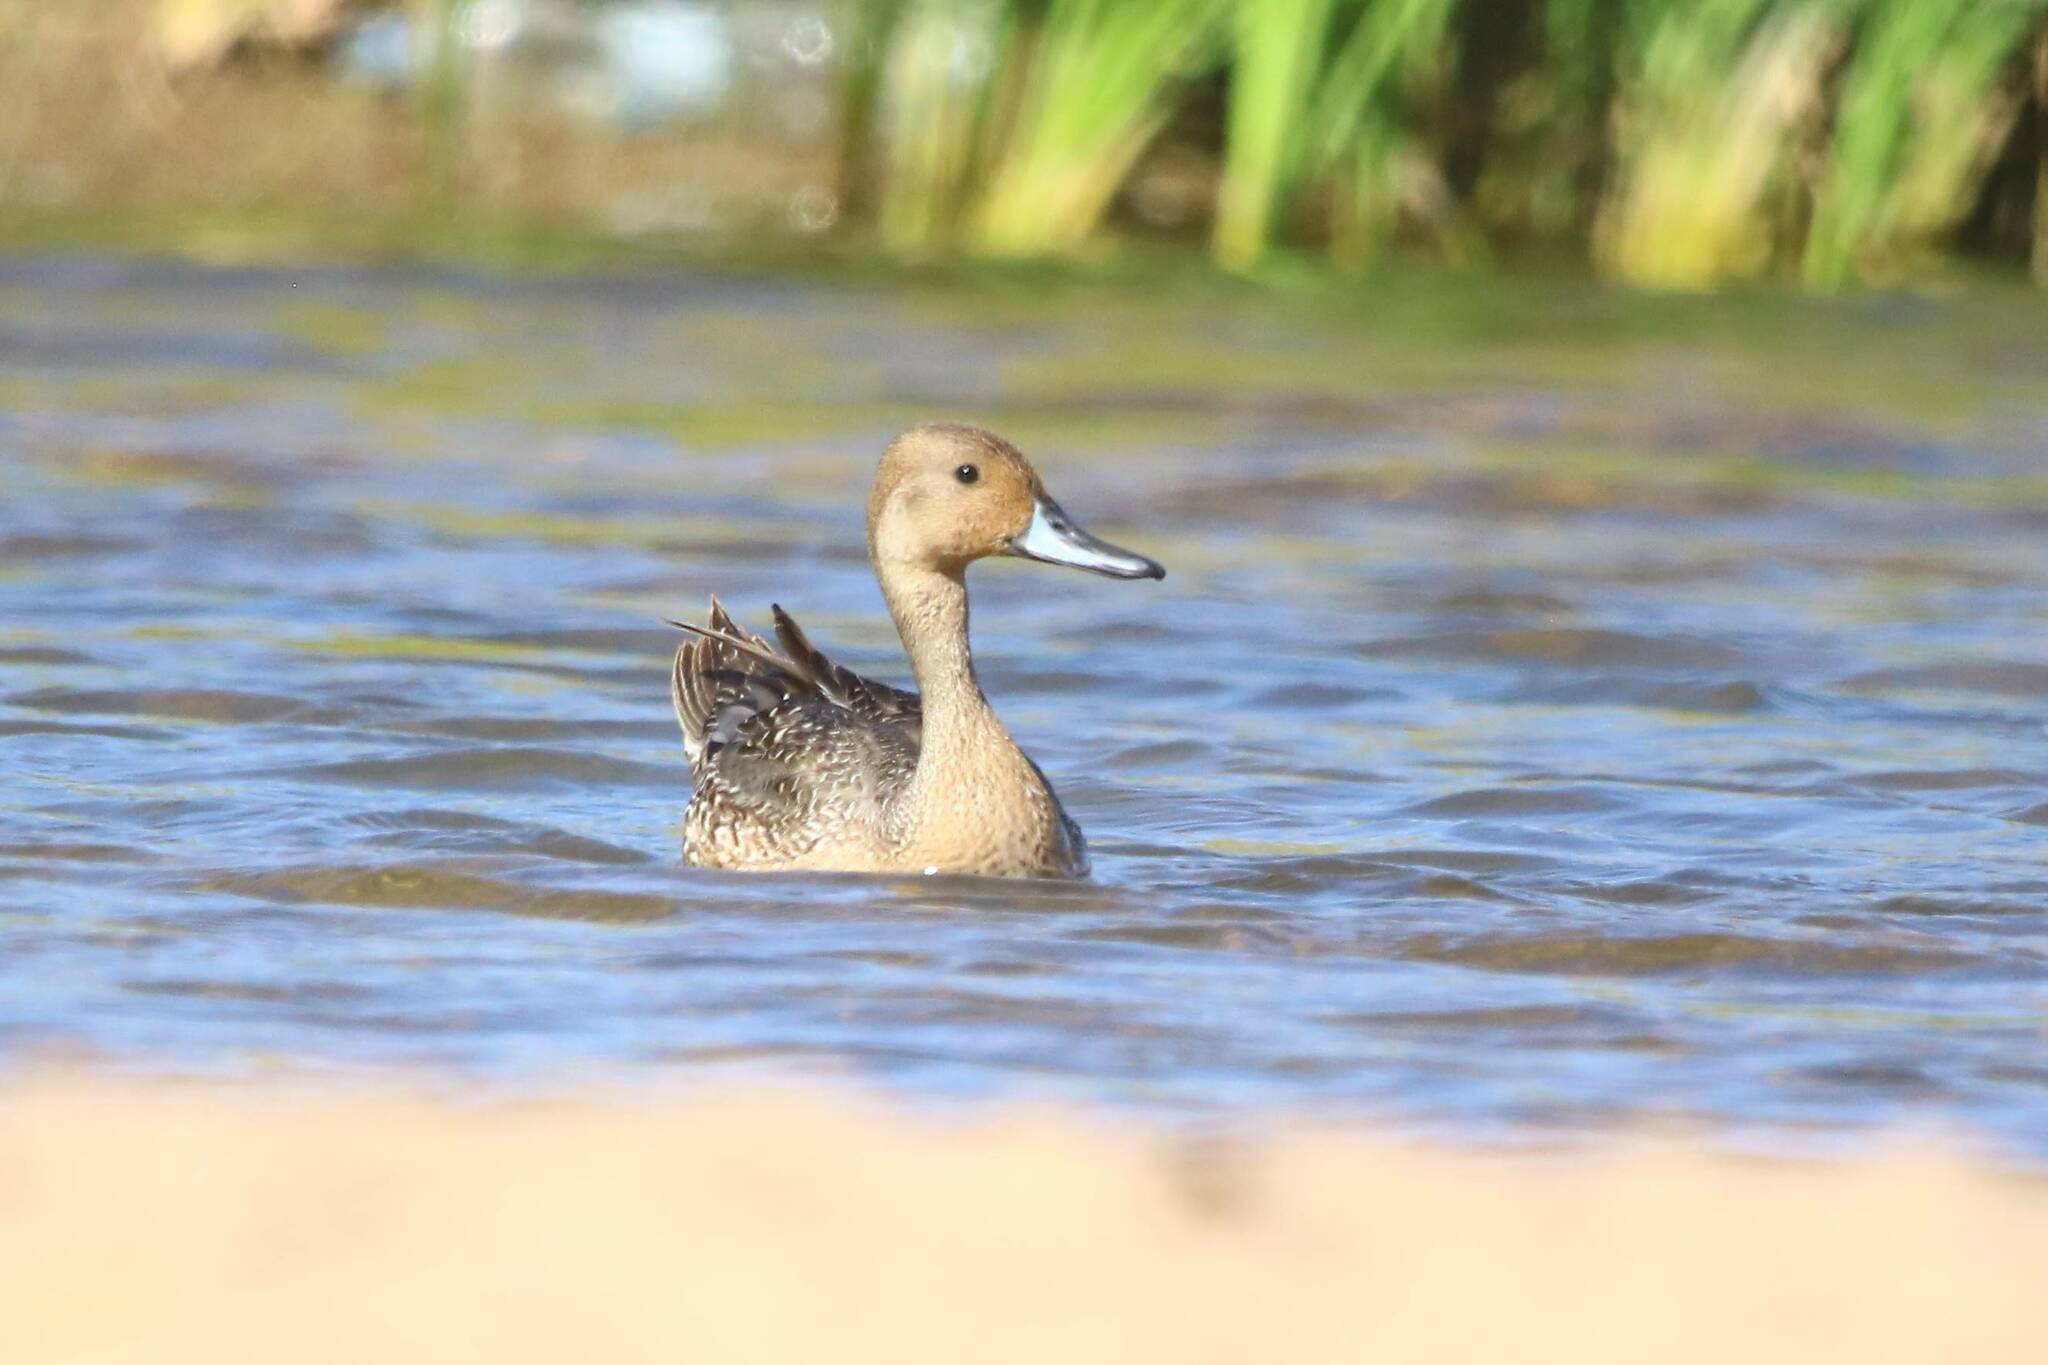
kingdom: Animalia
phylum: Chordata
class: Aves
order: Anseriformes
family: Anatidae
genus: Anas
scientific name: Anas acuta
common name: Northern pintail
